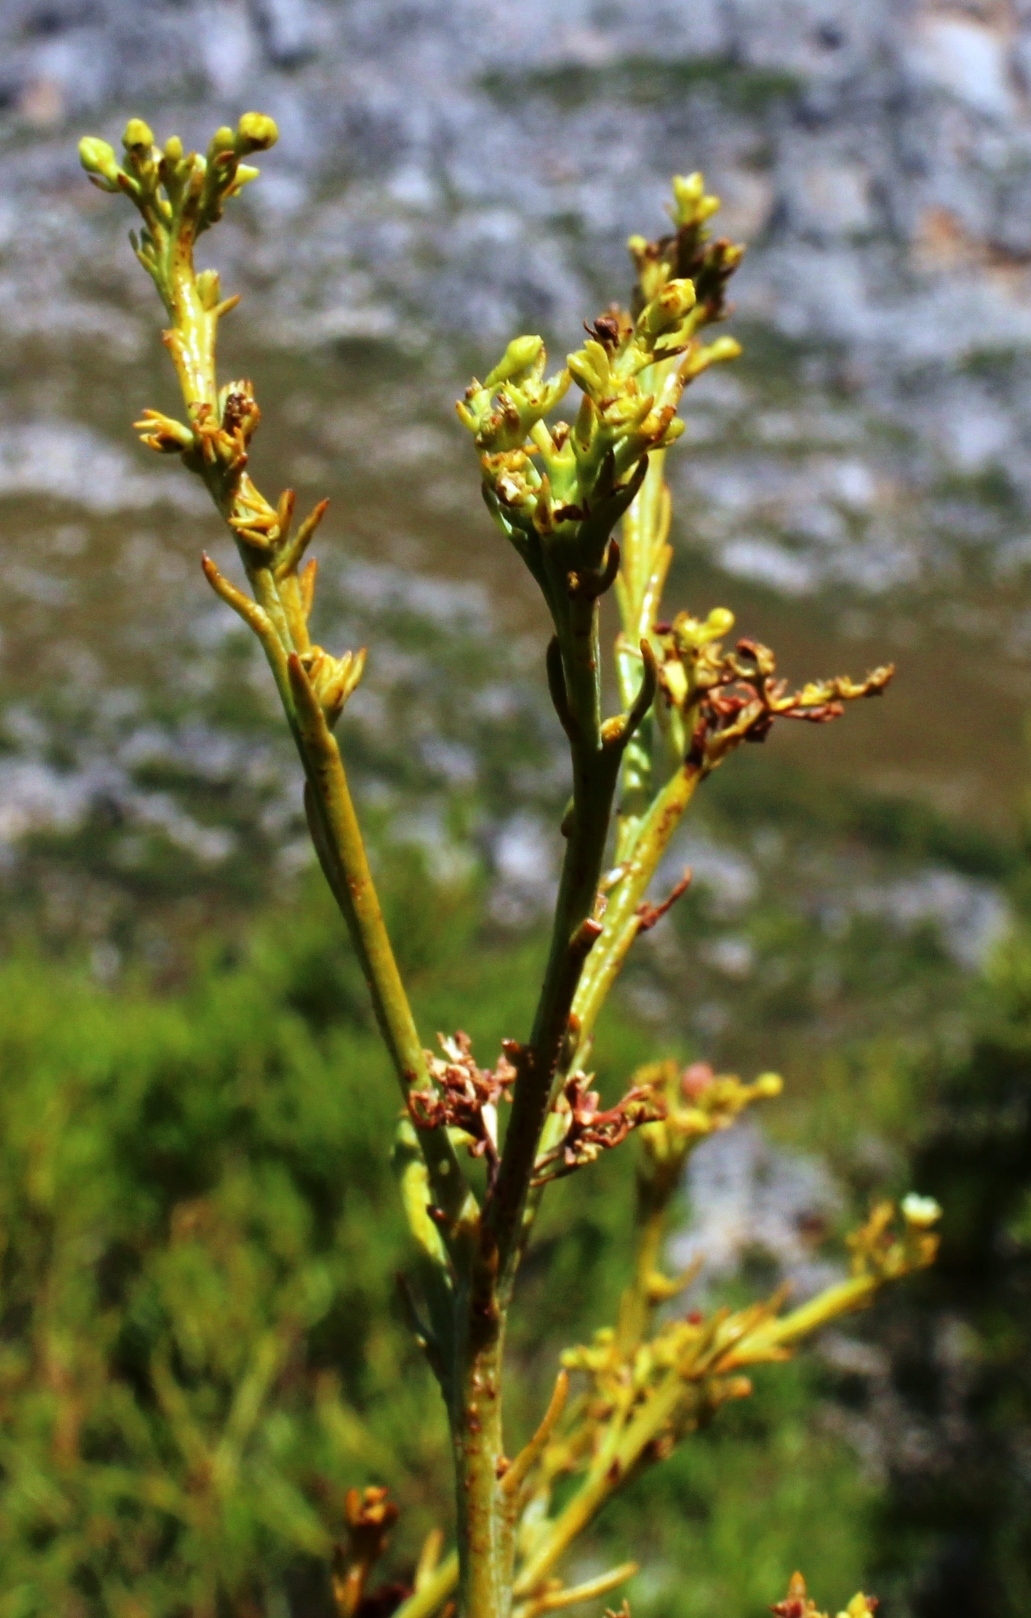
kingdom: Plantae
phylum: Tracheophyta
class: Magnoliopsida
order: Santalales
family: Thesiaceae
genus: Thesium
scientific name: Thesium strictum
